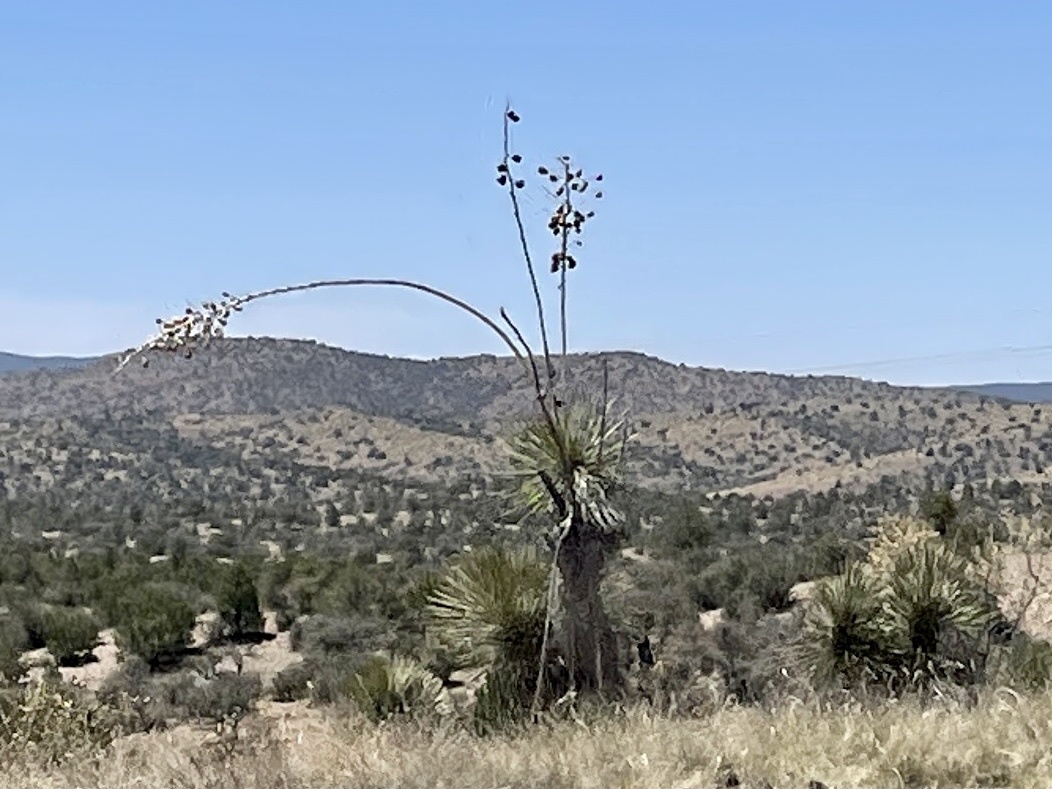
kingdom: Plantae
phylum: Tracheophyta
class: Liliopsida
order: Asparagales
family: Asparagaceae
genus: Yucca
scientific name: Yucca elata
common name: Palmella
